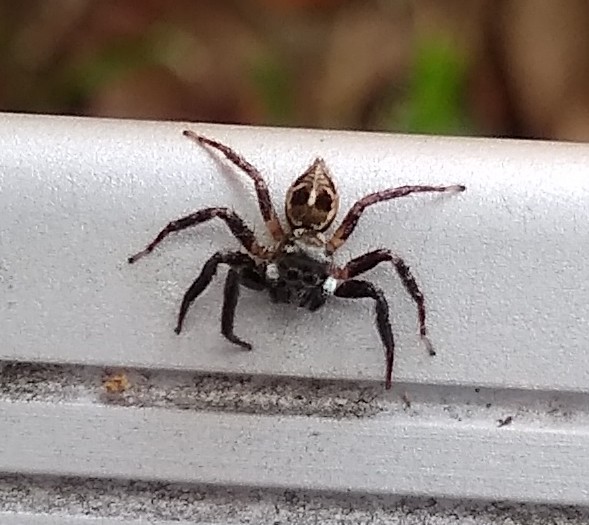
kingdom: Animalia
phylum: Arthropoda
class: Arachnida
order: Araneae
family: Salticidae
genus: Anasaitis
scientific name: Anasaitis canosa
